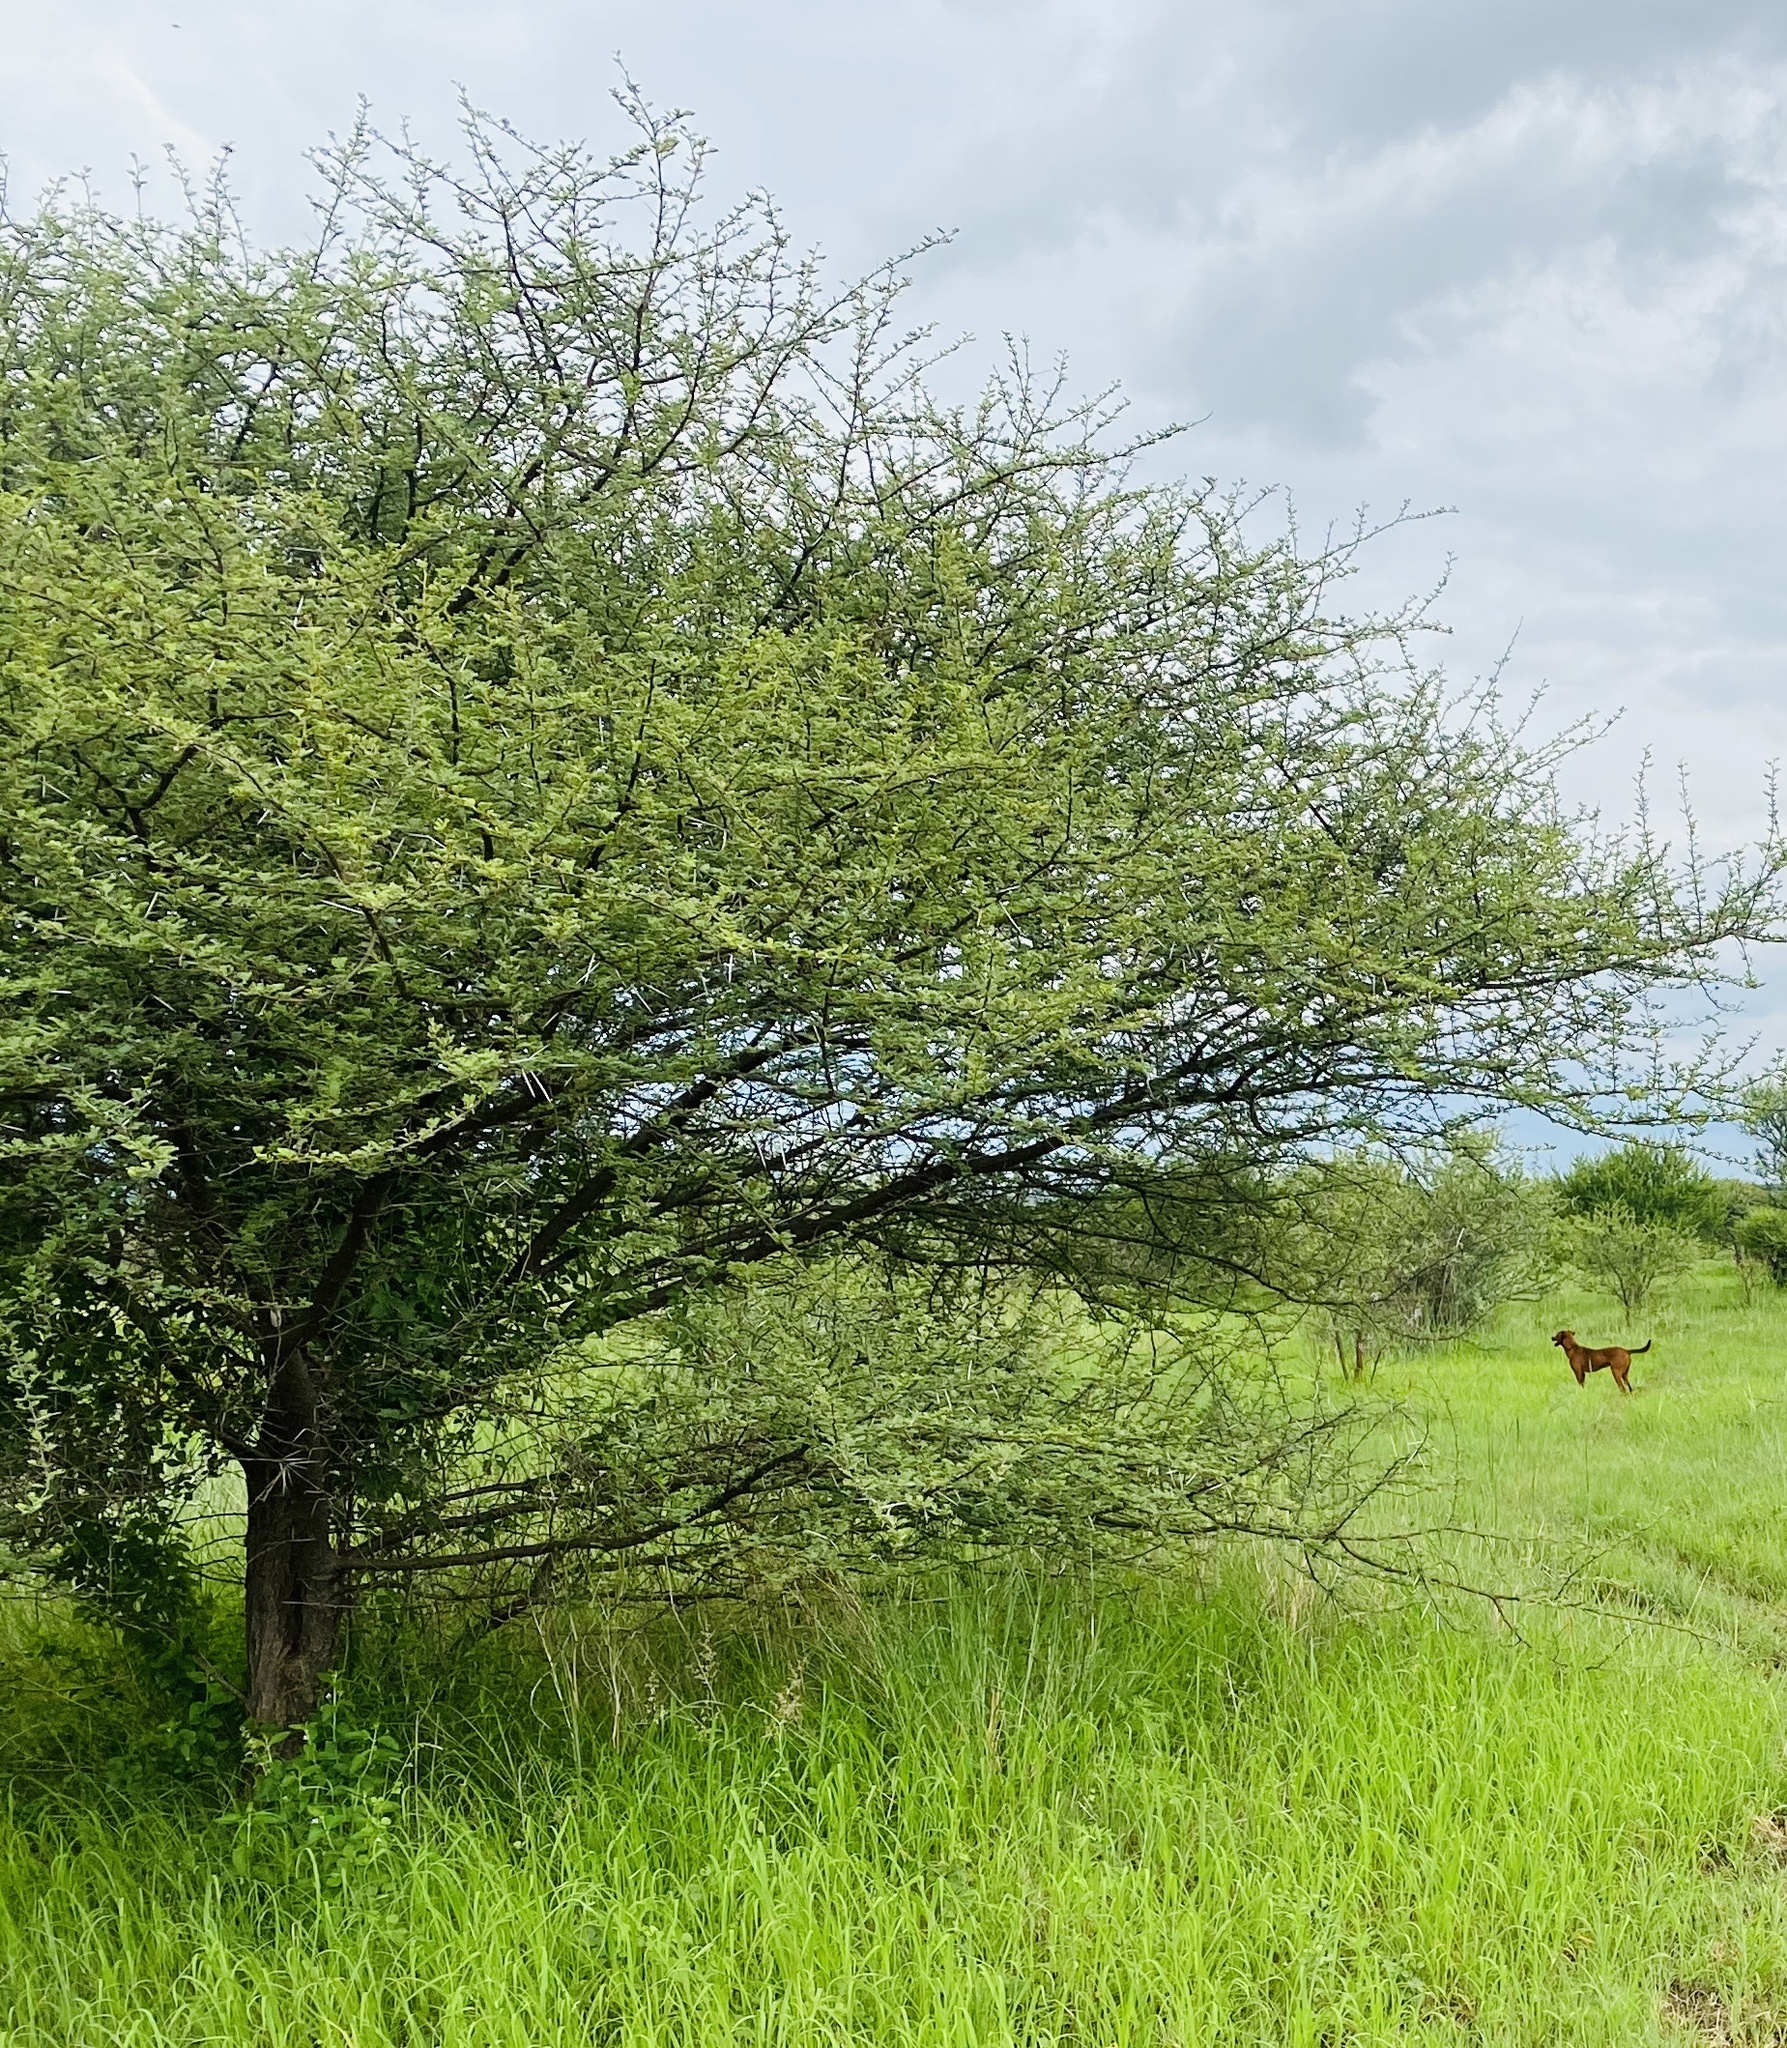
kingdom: Plantae
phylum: Tracheophyta
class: Magnoliopsida
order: Fabales
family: Fabaceae
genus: Vachellia
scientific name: Vachellia tortilis
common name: Umbrella thorn acacia
